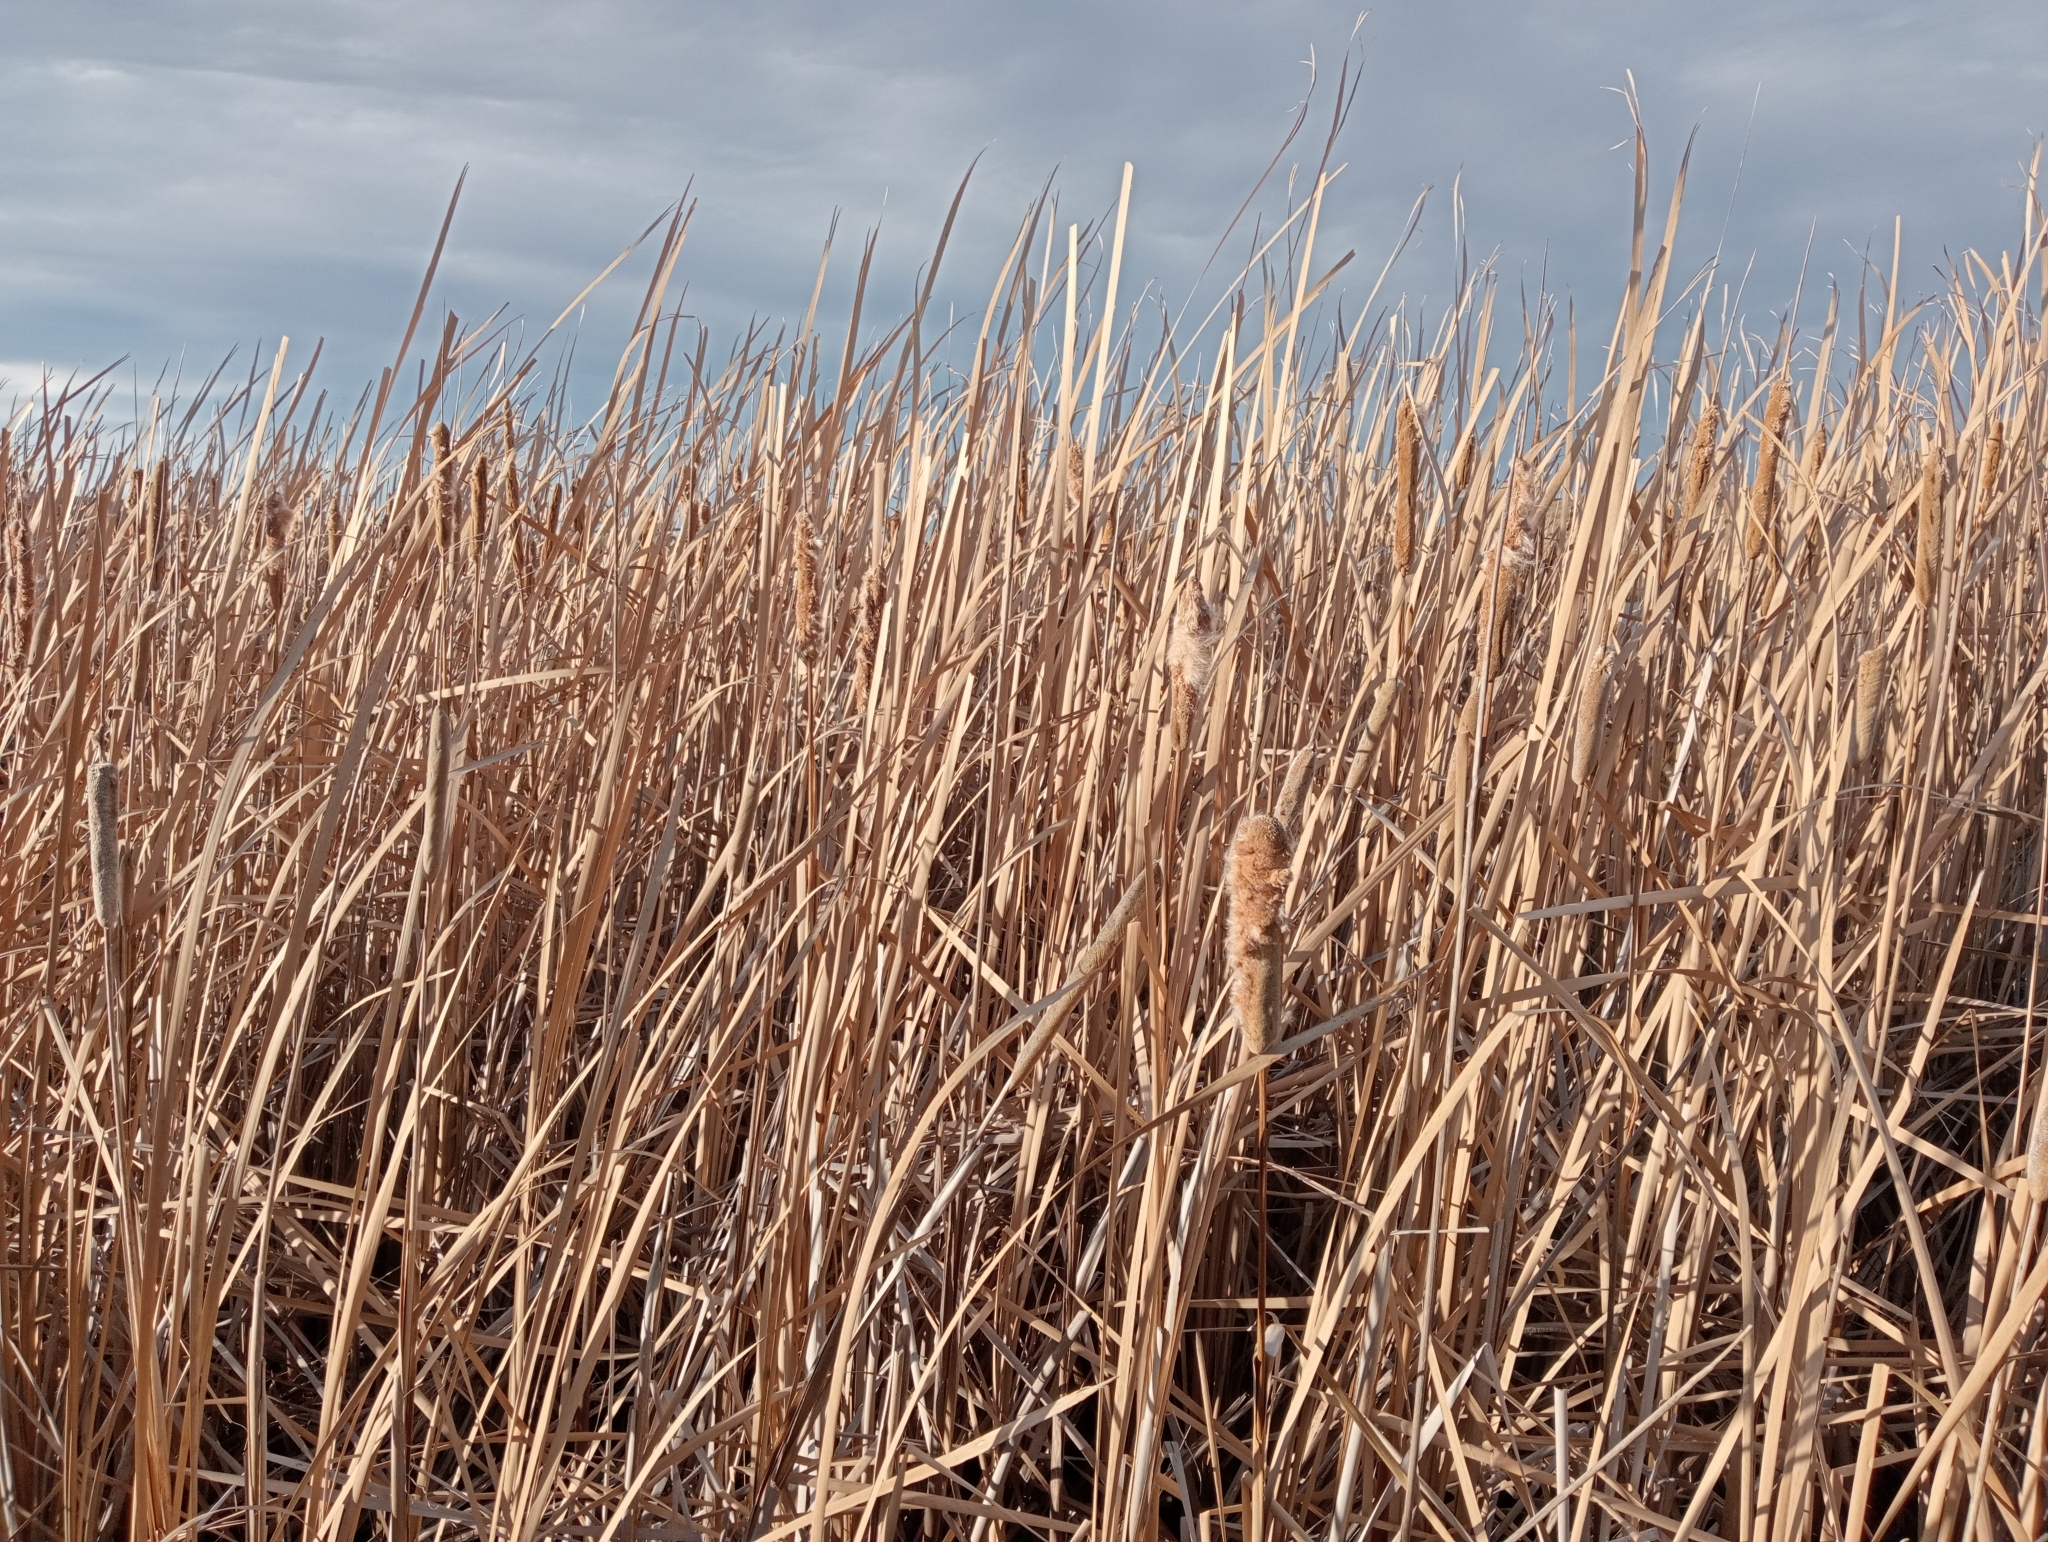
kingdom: Plantae
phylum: Tracheophyta
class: Liliopsida
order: Poales
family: Typhaceae
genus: Typha
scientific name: Typha orientalis
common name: Bullrush
